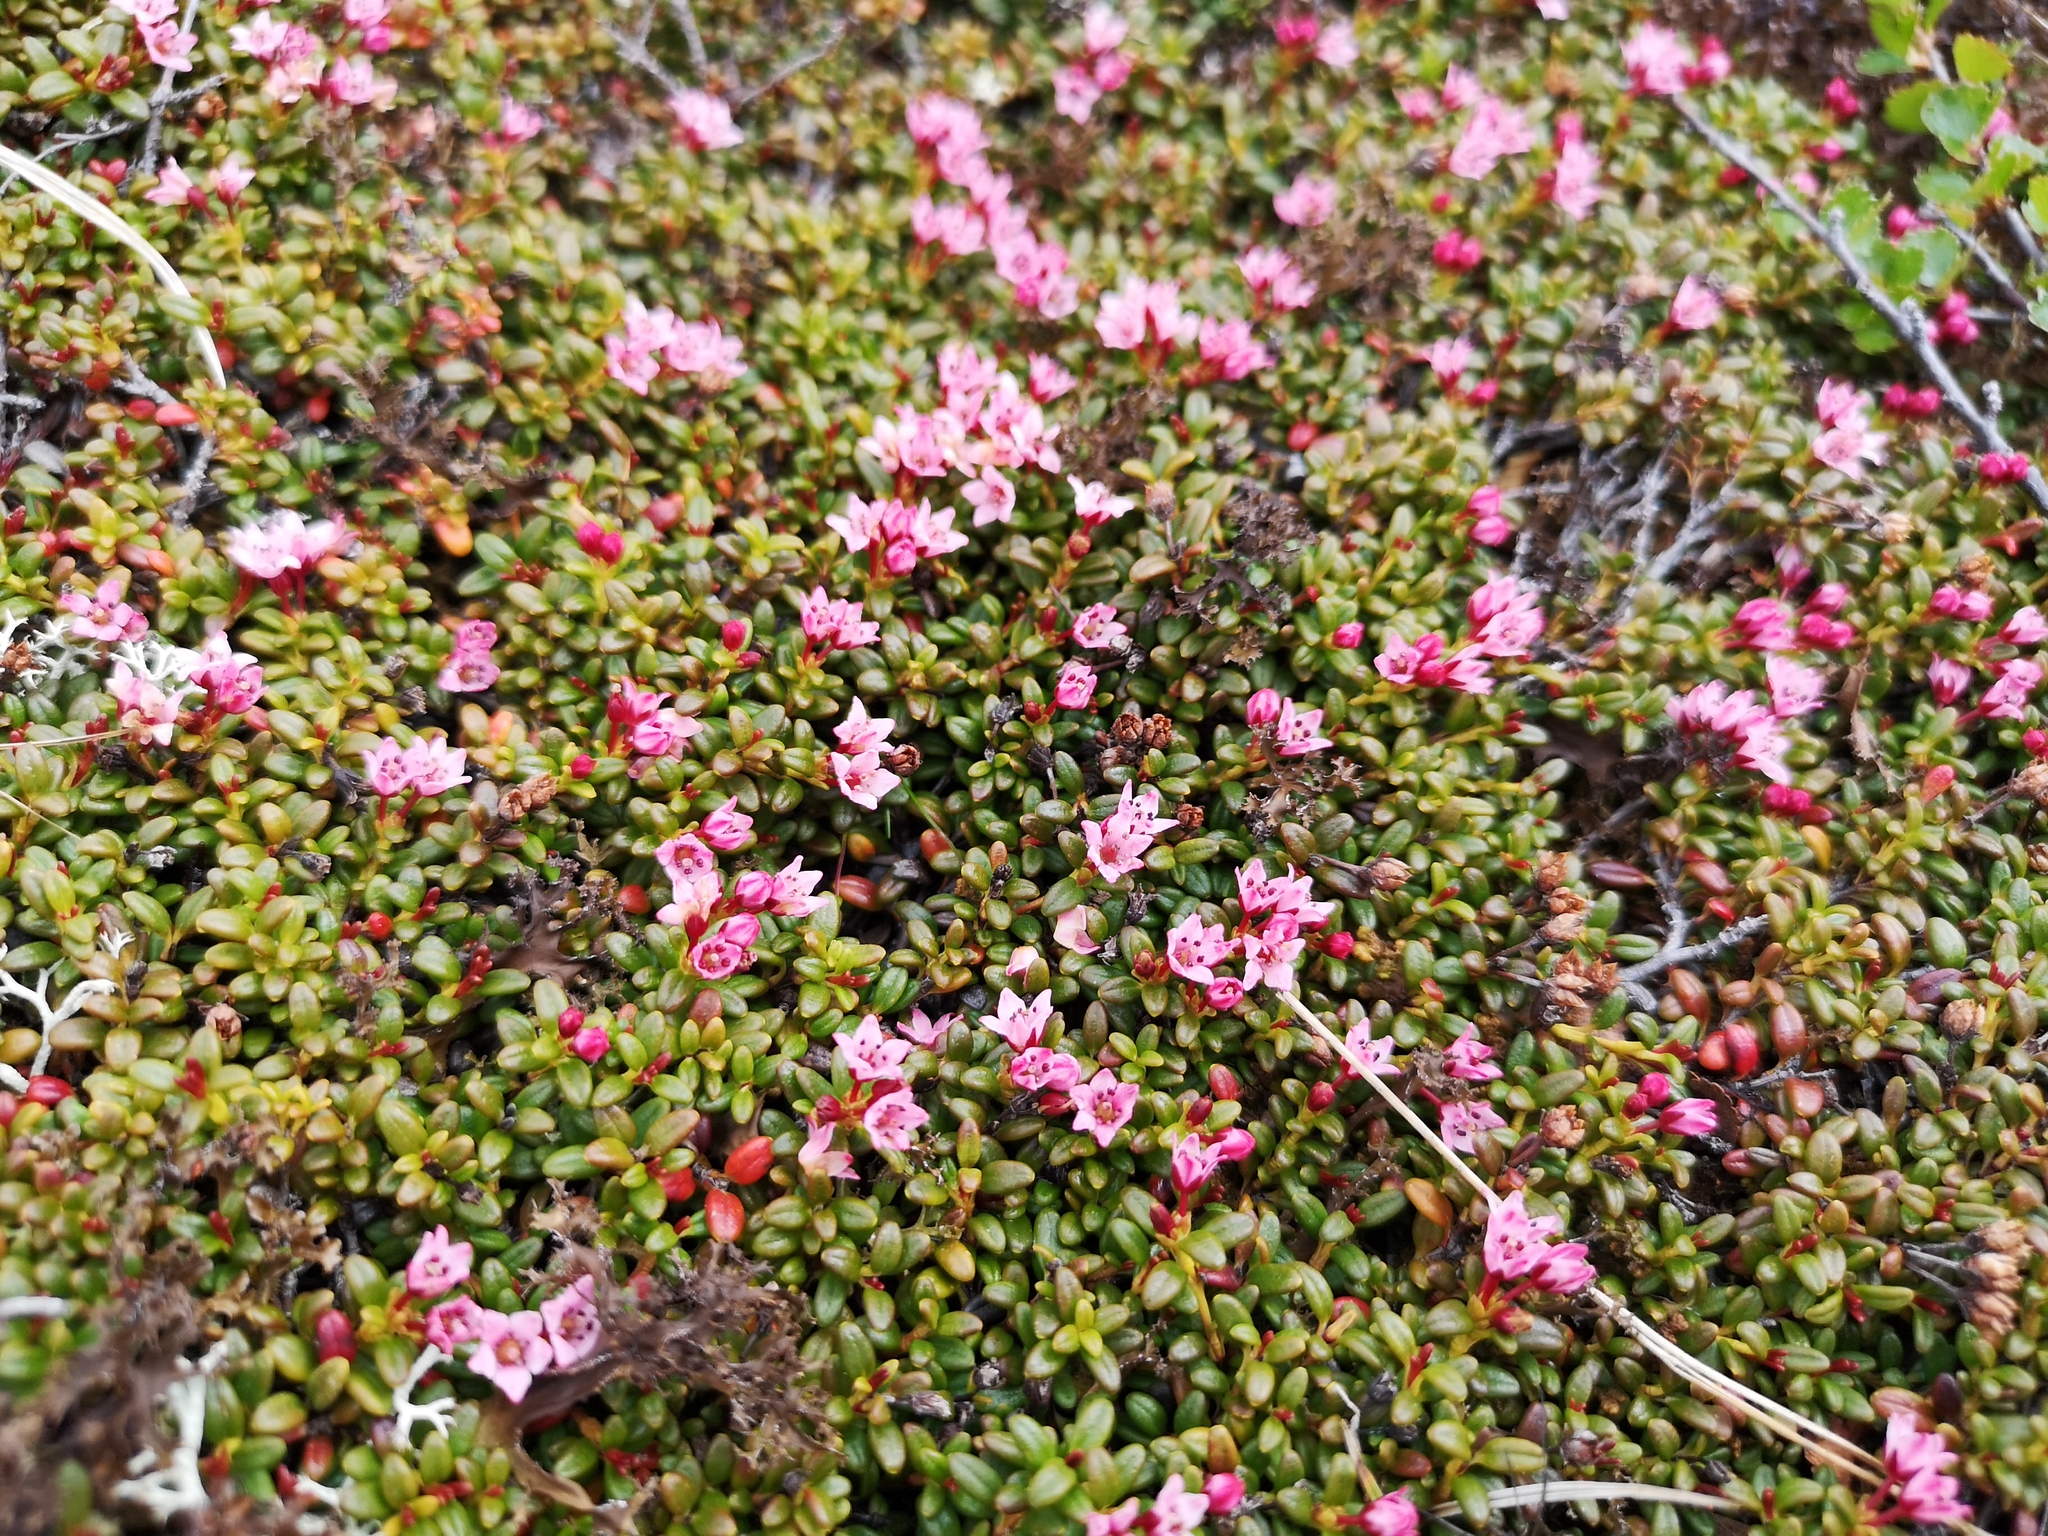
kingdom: Plantae
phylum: Tracheophyta
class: Magnoliopsida
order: Ericales
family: Ericaceae
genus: Kalmia
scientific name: Kalmia procumbens
